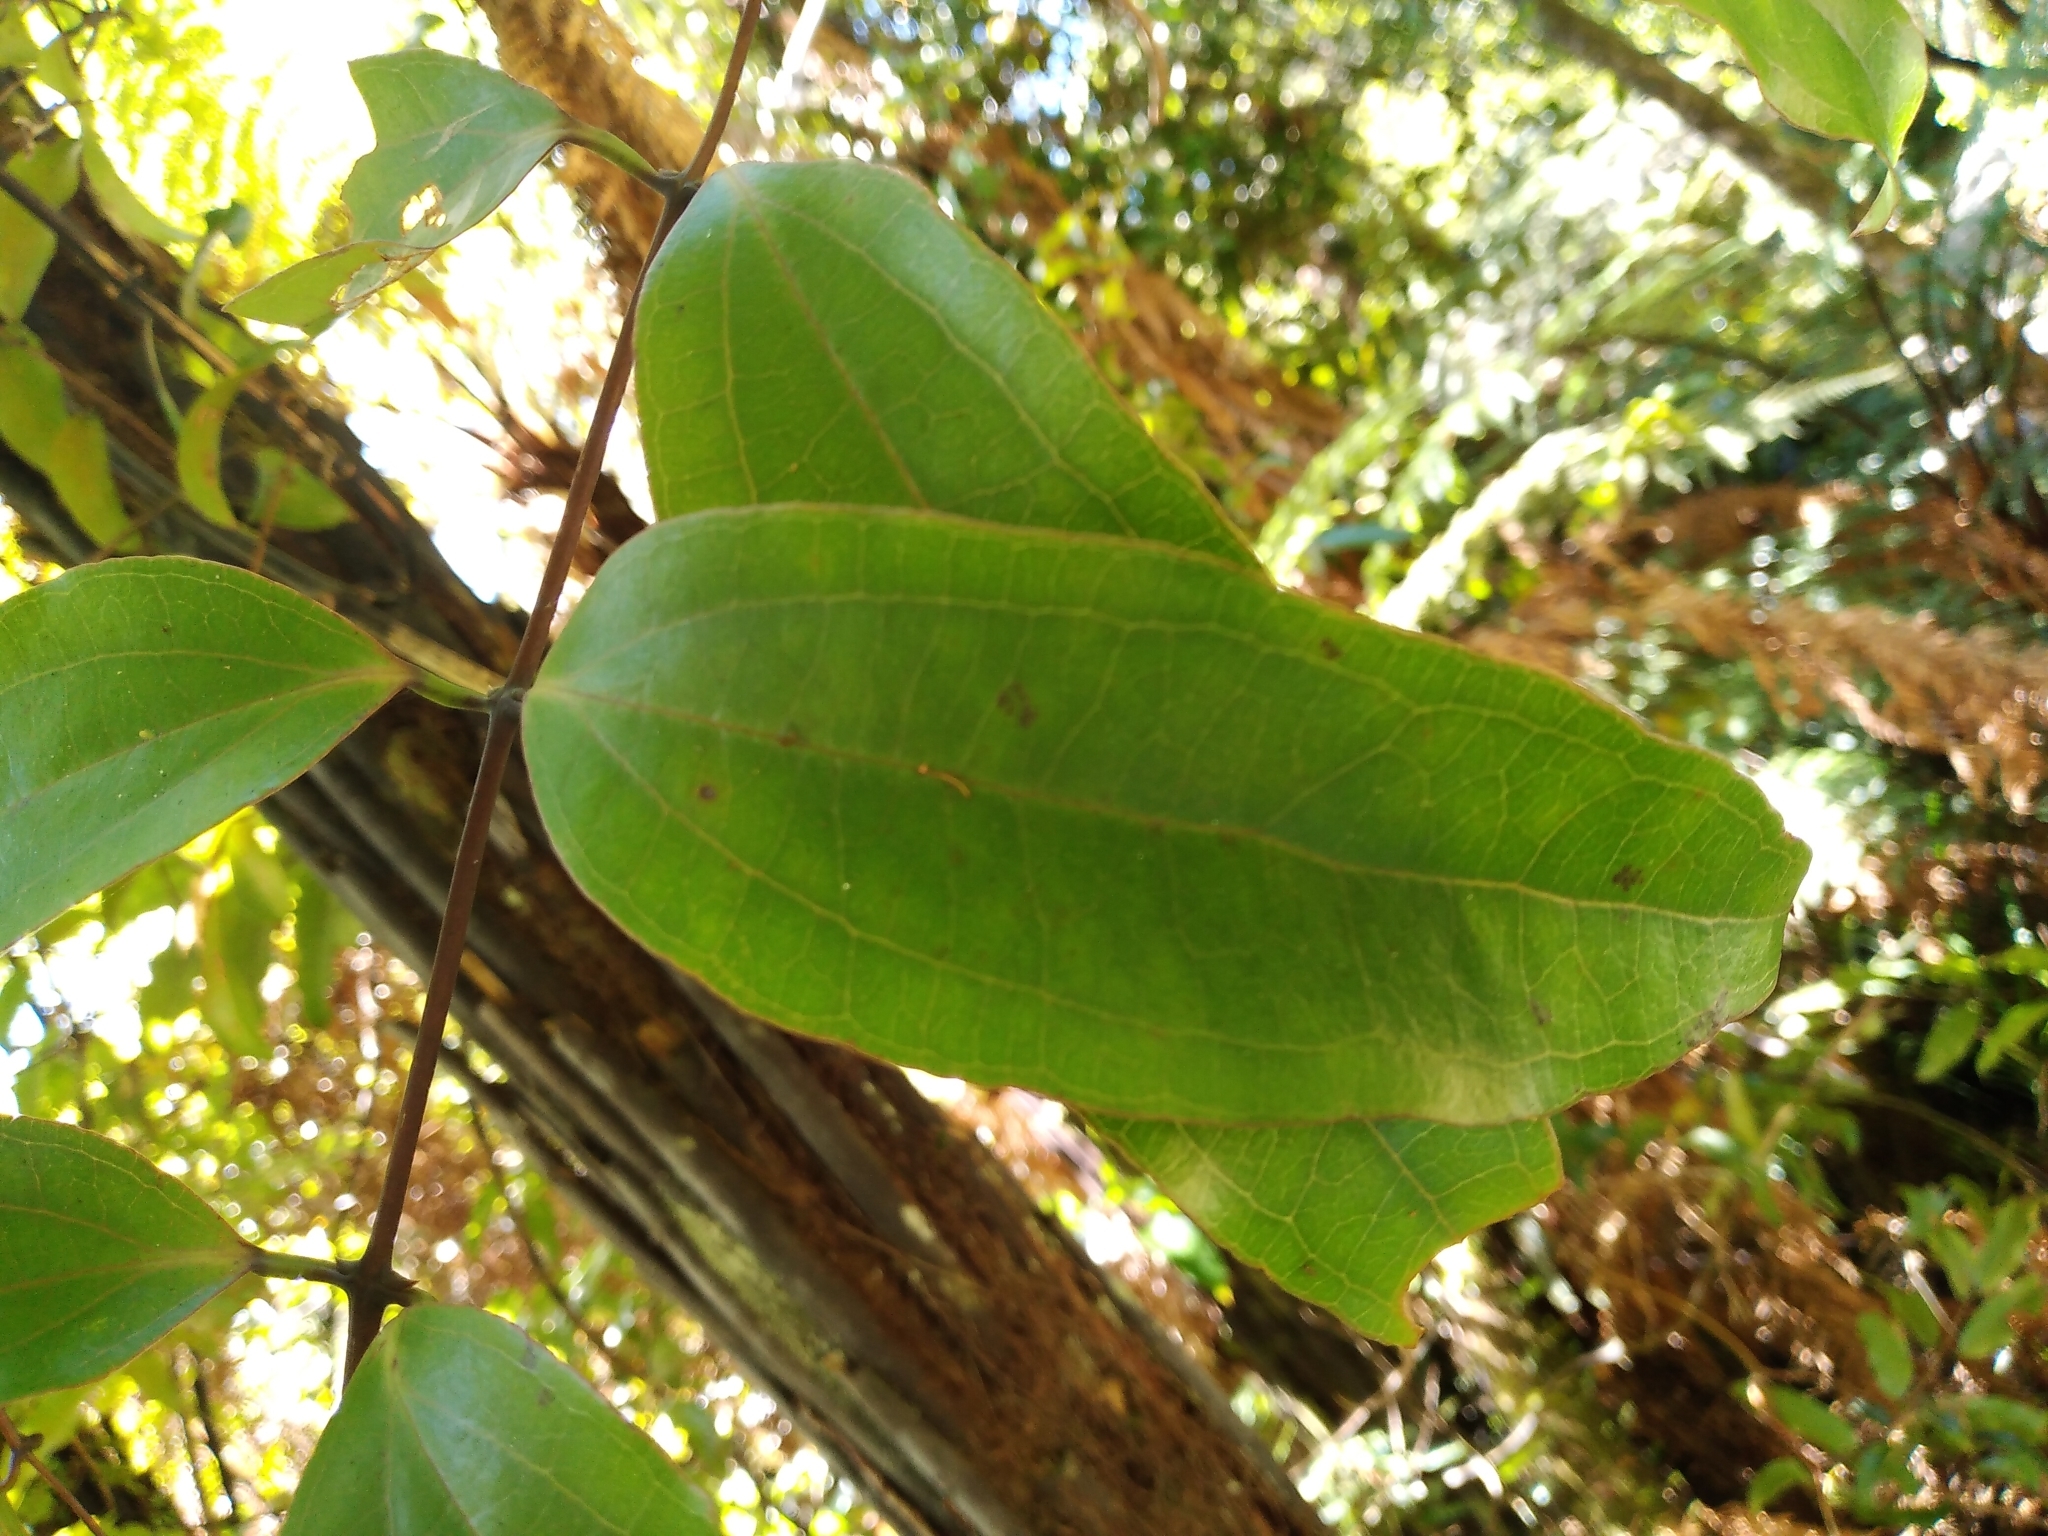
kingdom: Plantae
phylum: Tracheophyta
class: Liliopsida
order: Liliales
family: Ripogonaceae
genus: Ripogonum
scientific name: Ripogonum scandens
